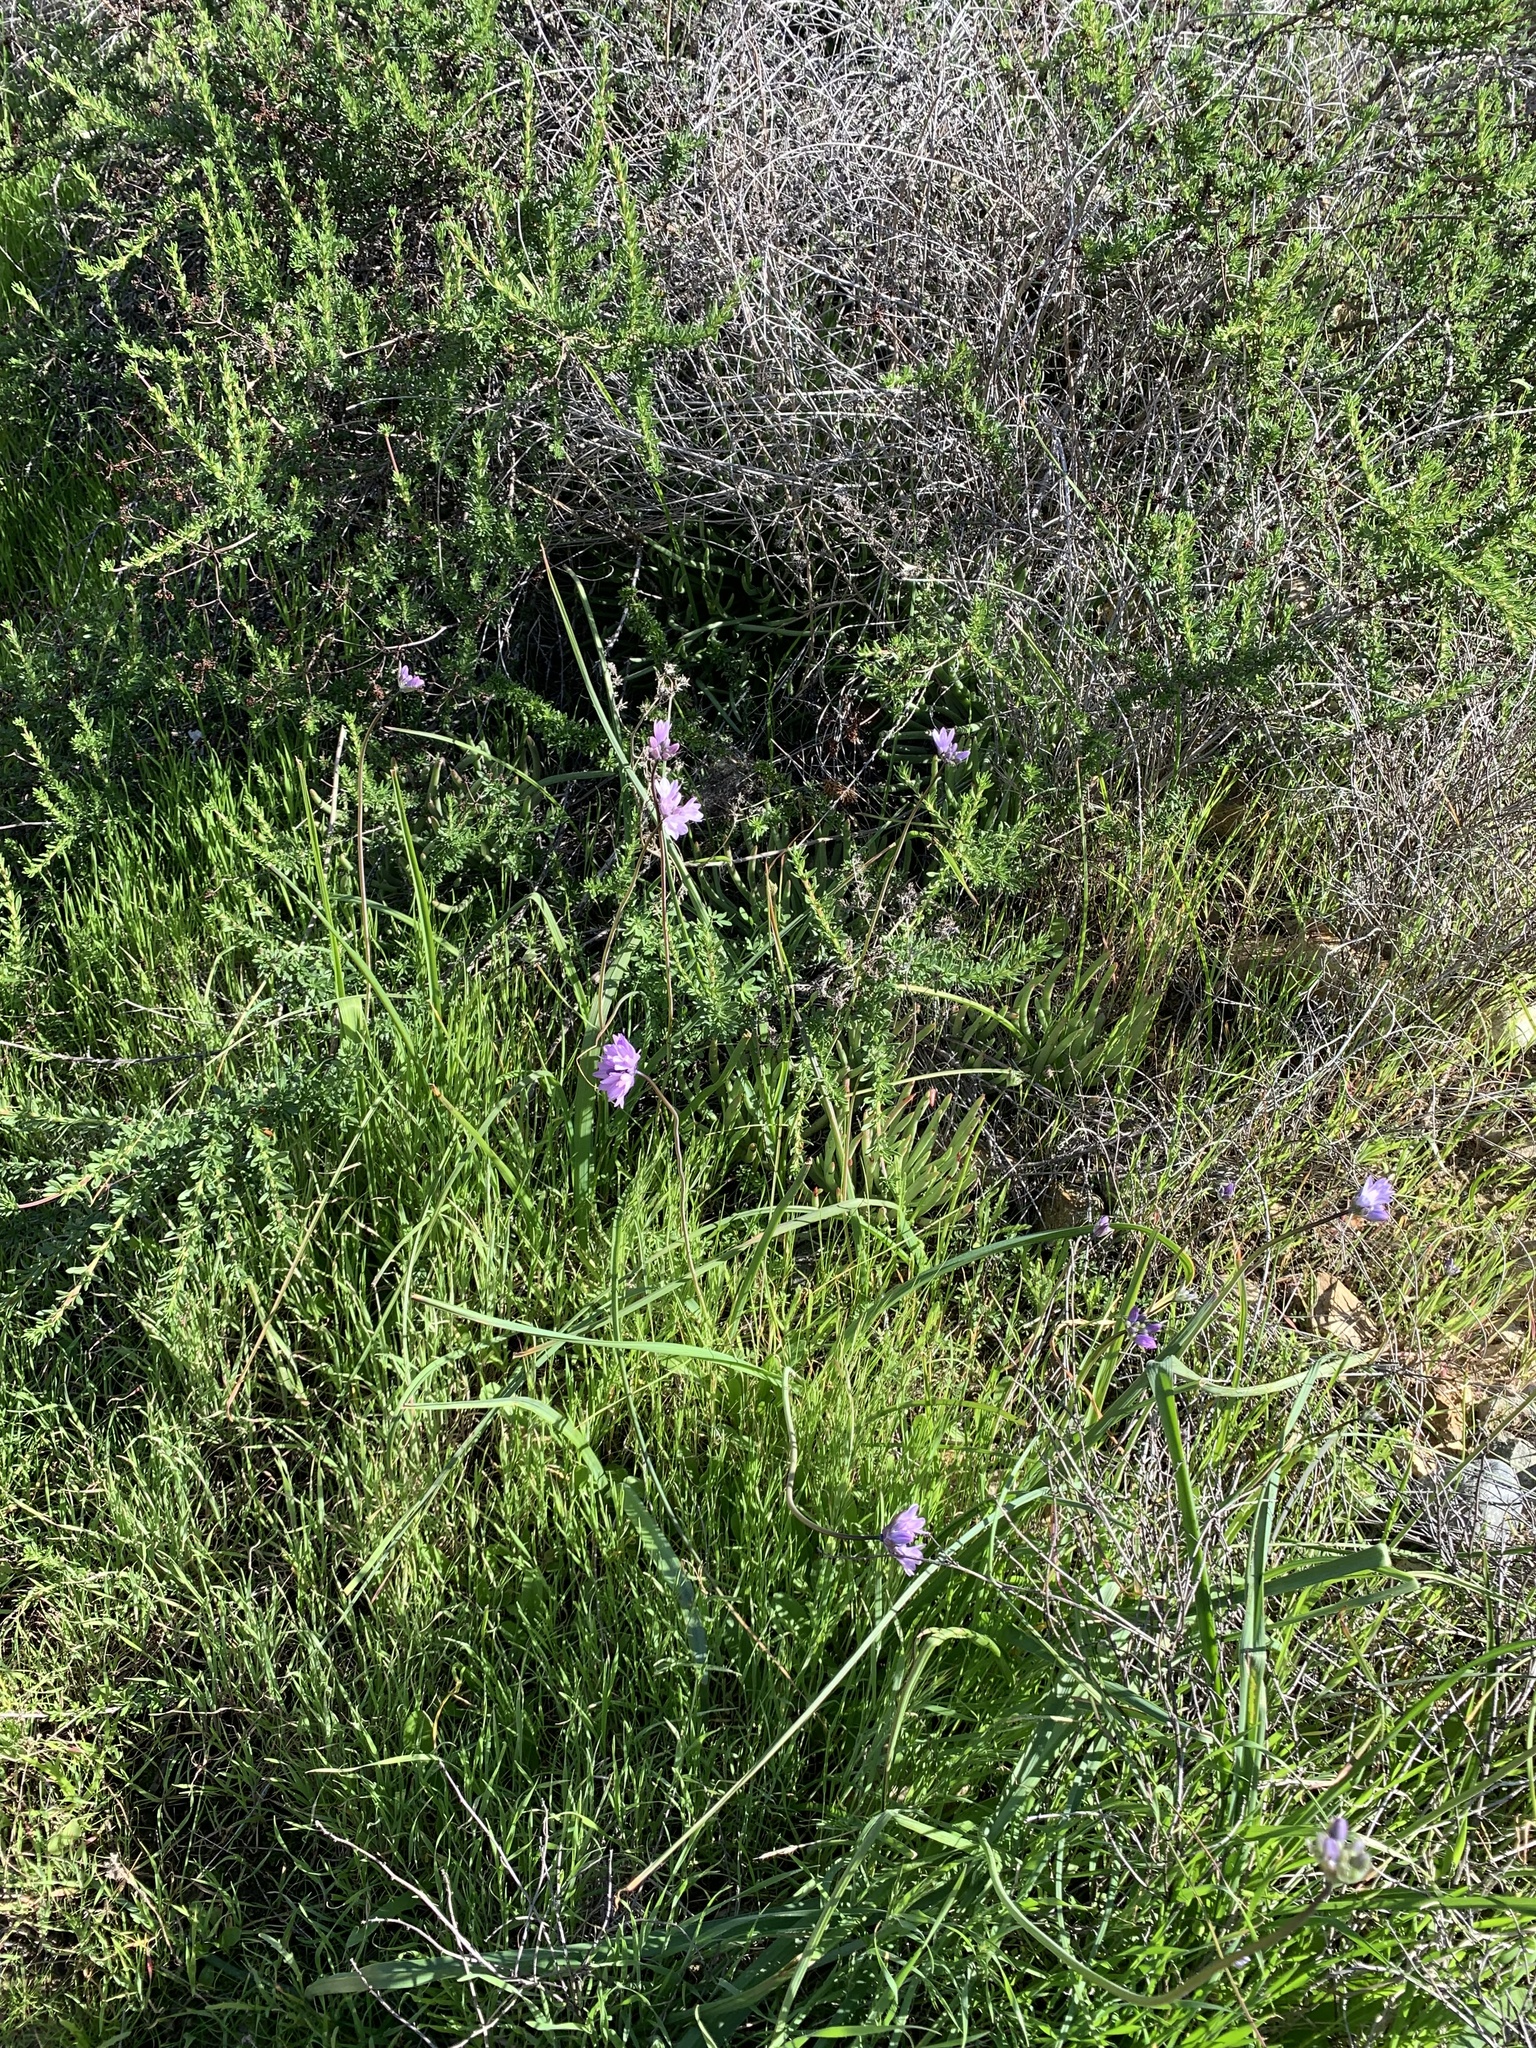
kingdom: Plantae
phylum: Tracheophyta
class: Liliopsida
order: Asparagales
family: Asparagaceae
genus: Dipterostemon
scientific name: Dipterostemon capitatus
